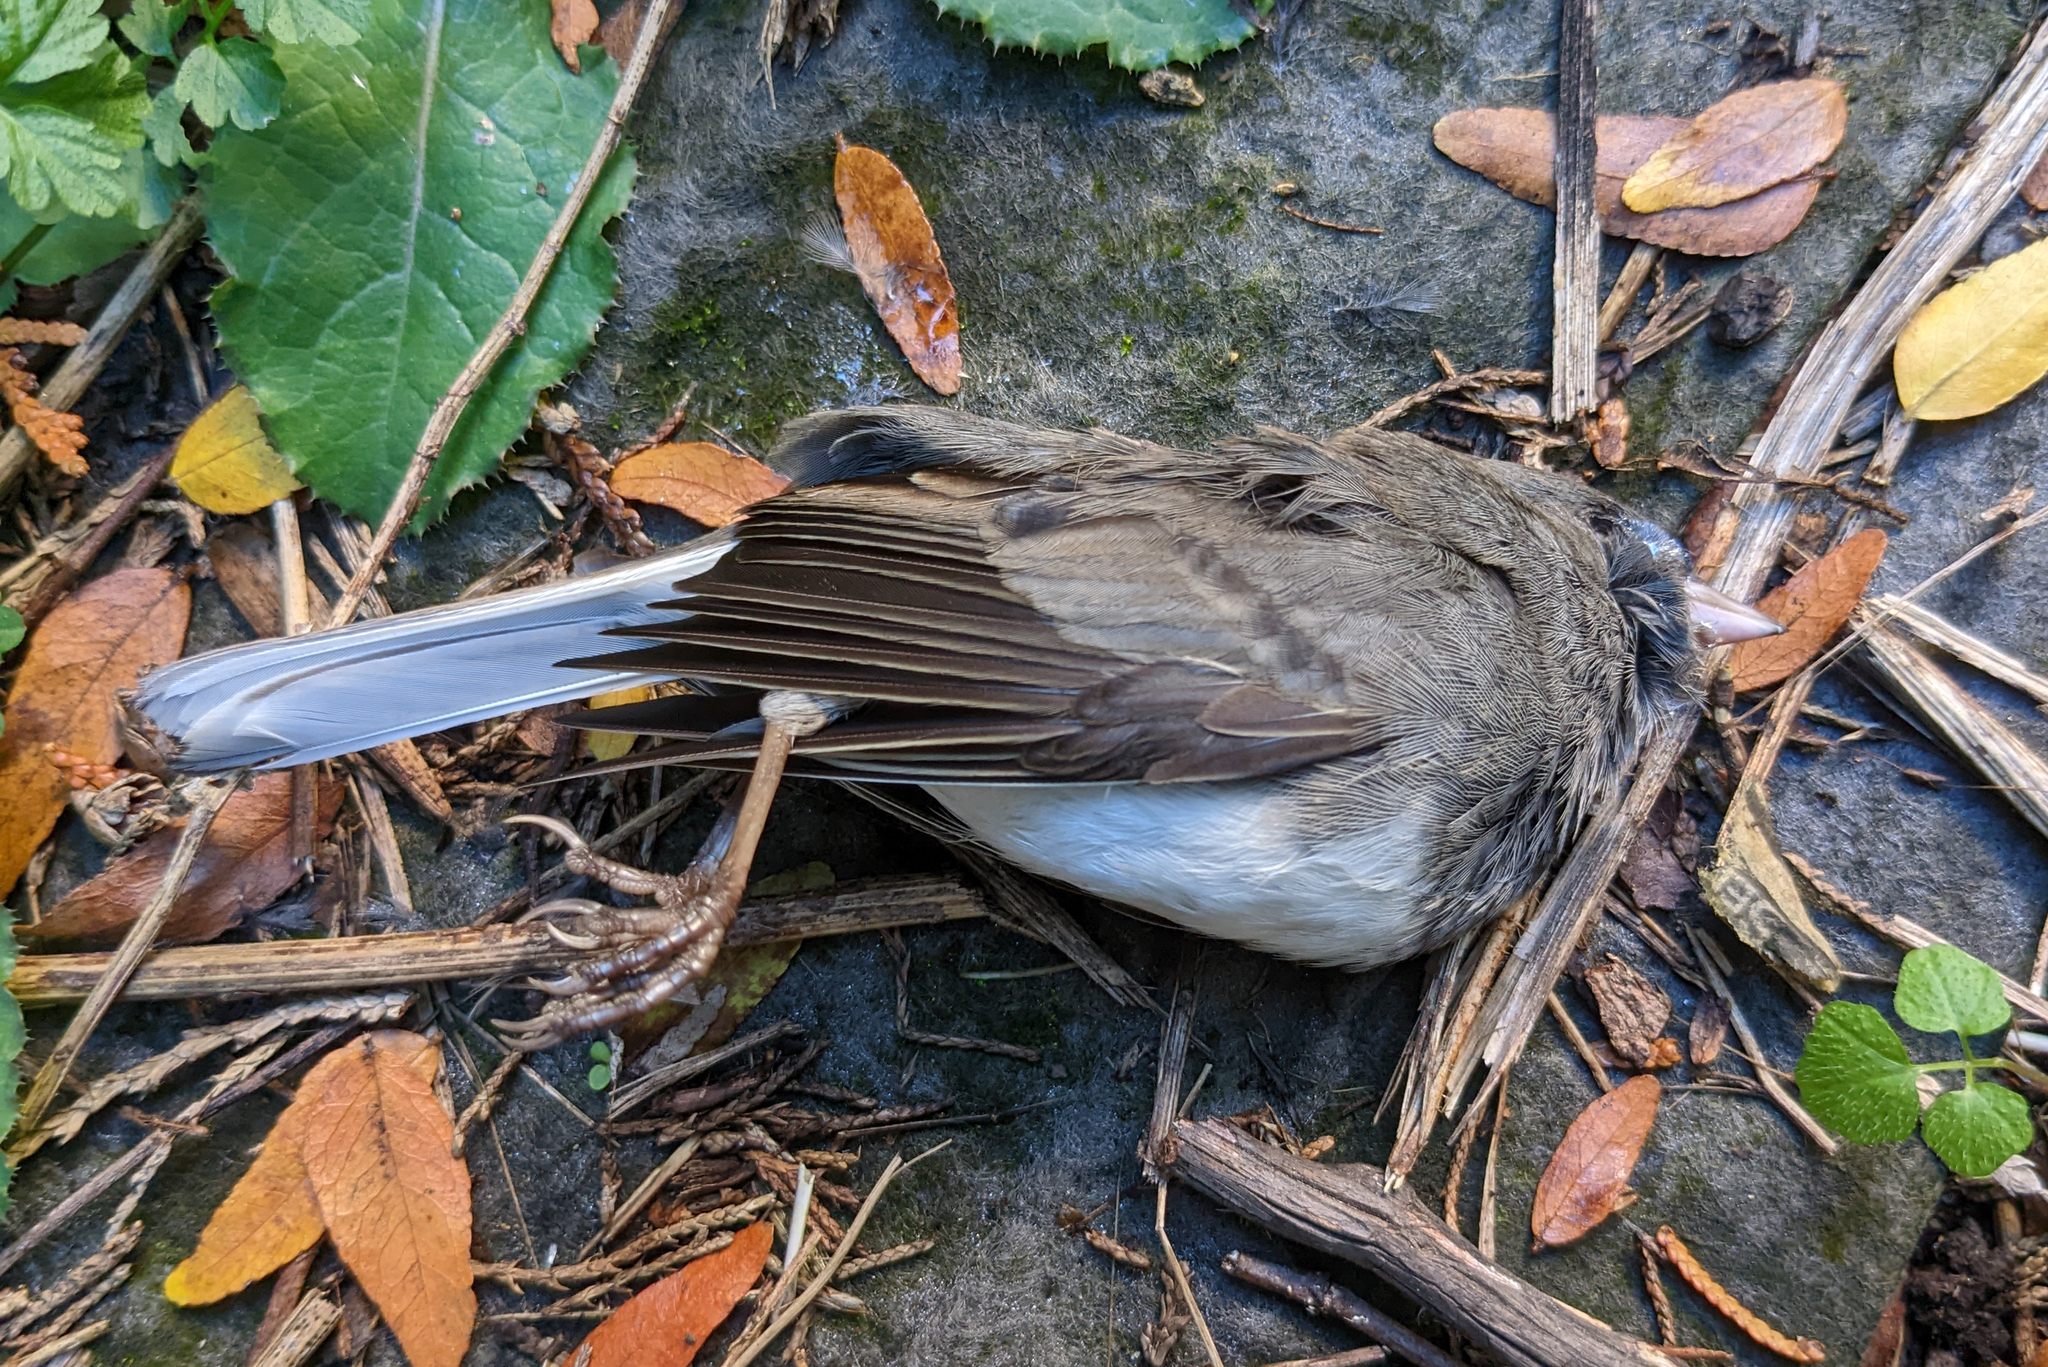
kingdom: Animalia
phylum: Chordata
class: Aves
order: Passeriformes
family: Passerellidae
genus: Junco
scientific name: Junco hyemalis
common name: Dark-eyed junco
